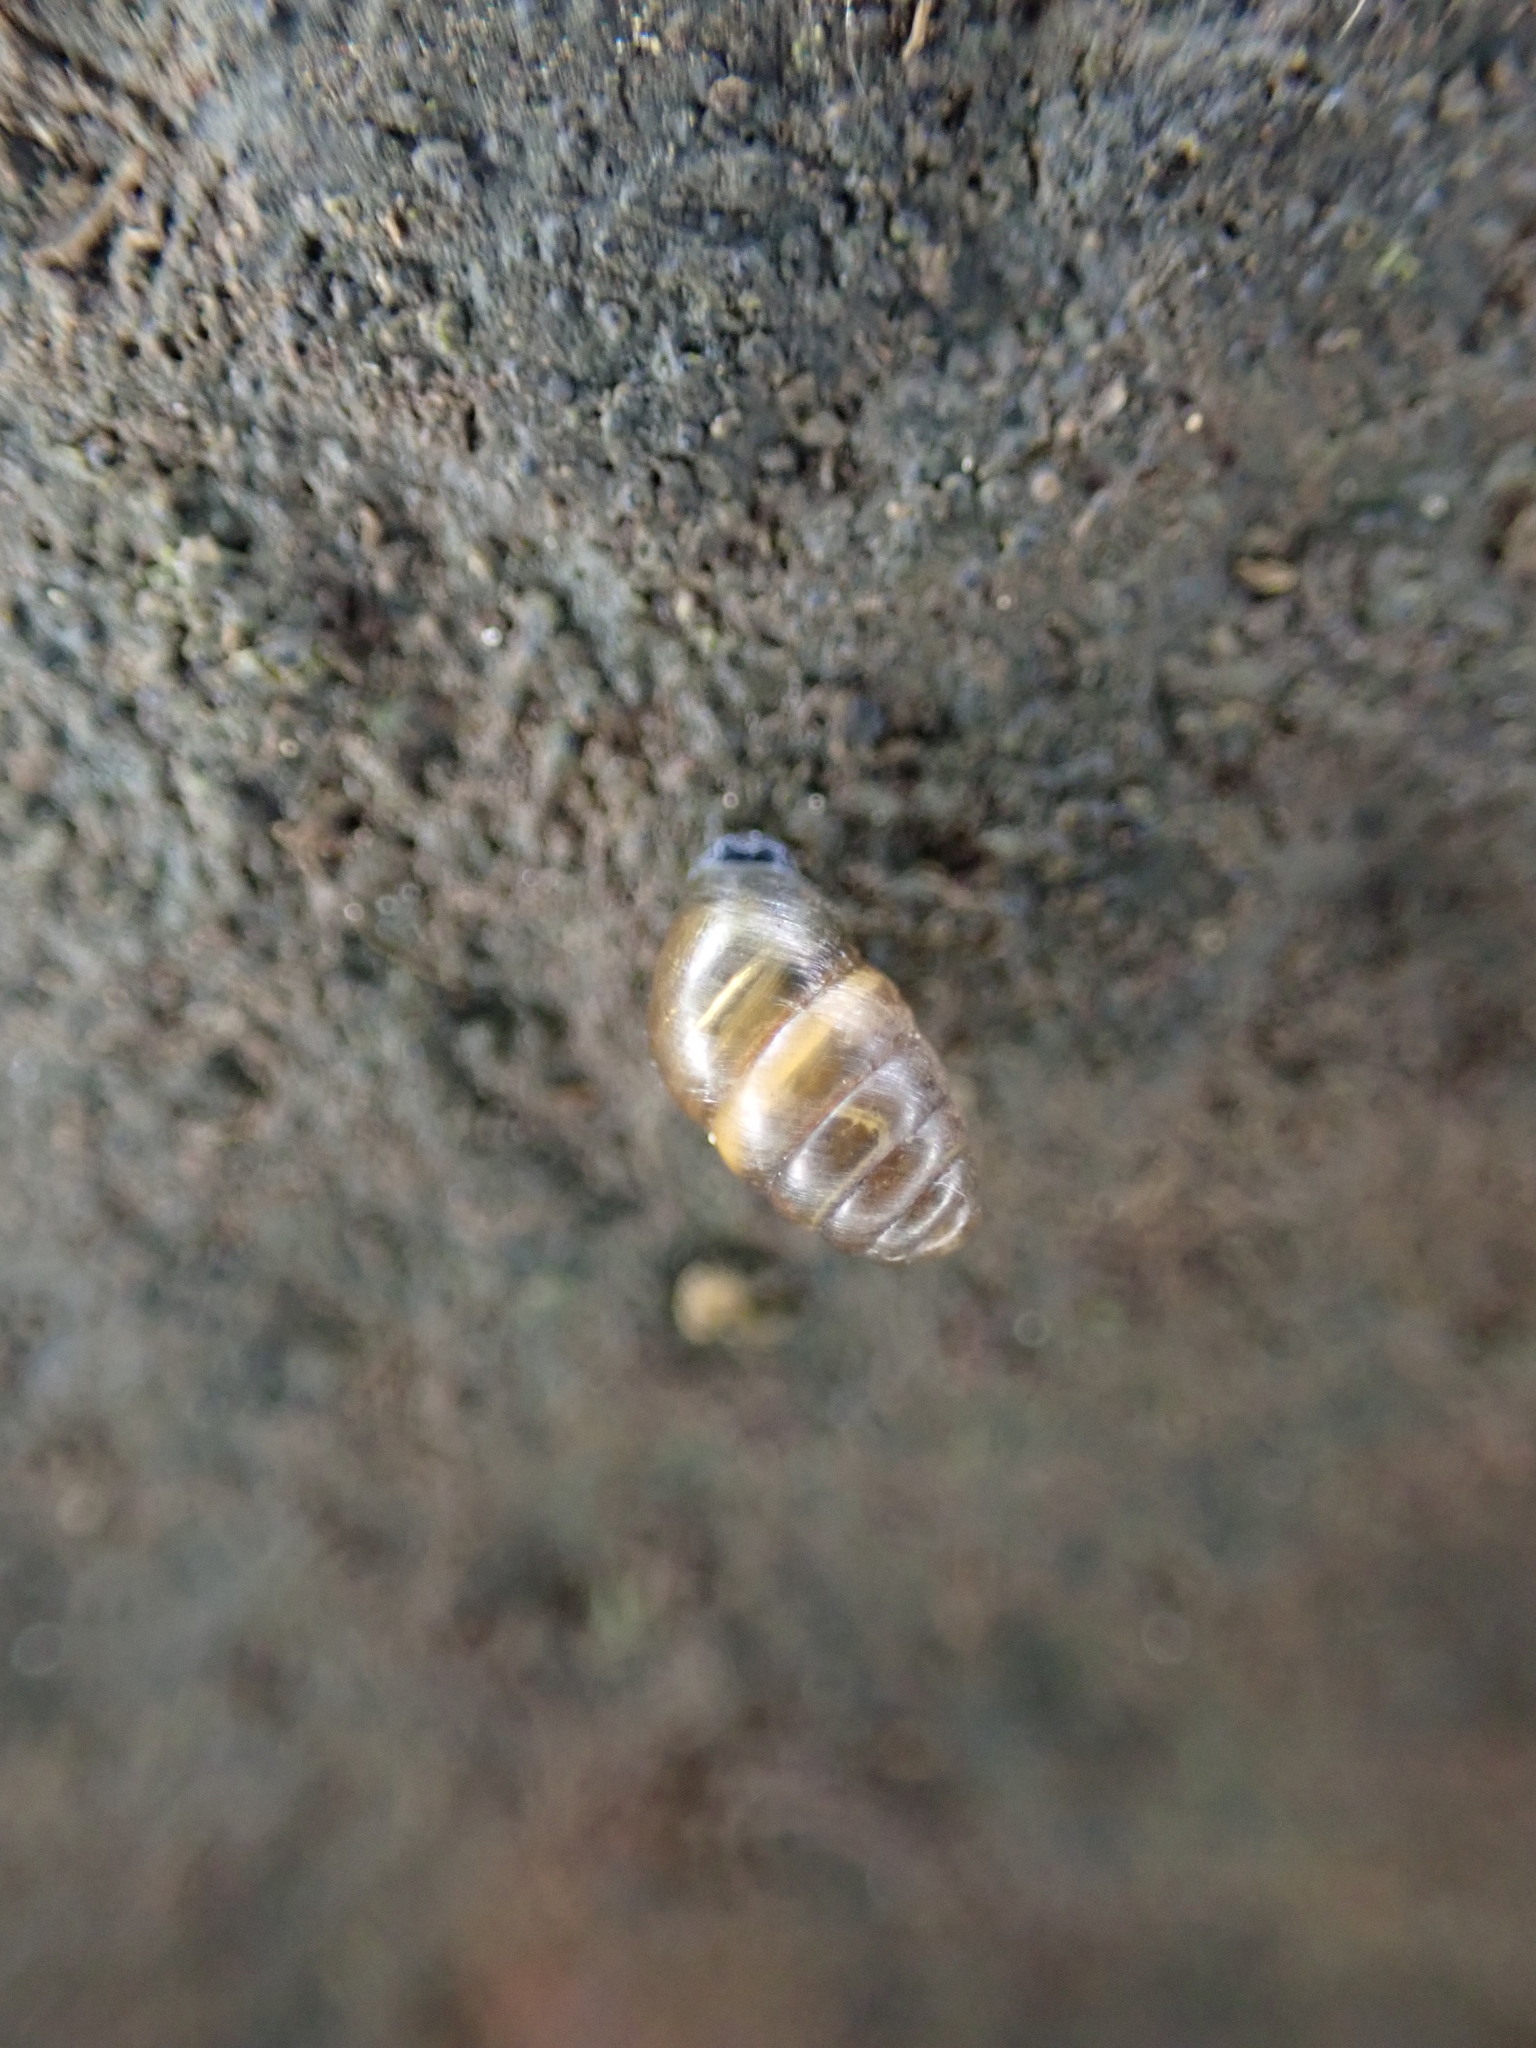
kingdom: Animalia
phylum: Mollusca
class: Gastropoda
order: Stylommatophora
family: Lauriidae
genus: Lauria
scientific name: Lauria cylindracea
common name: Common chrysalis snail
